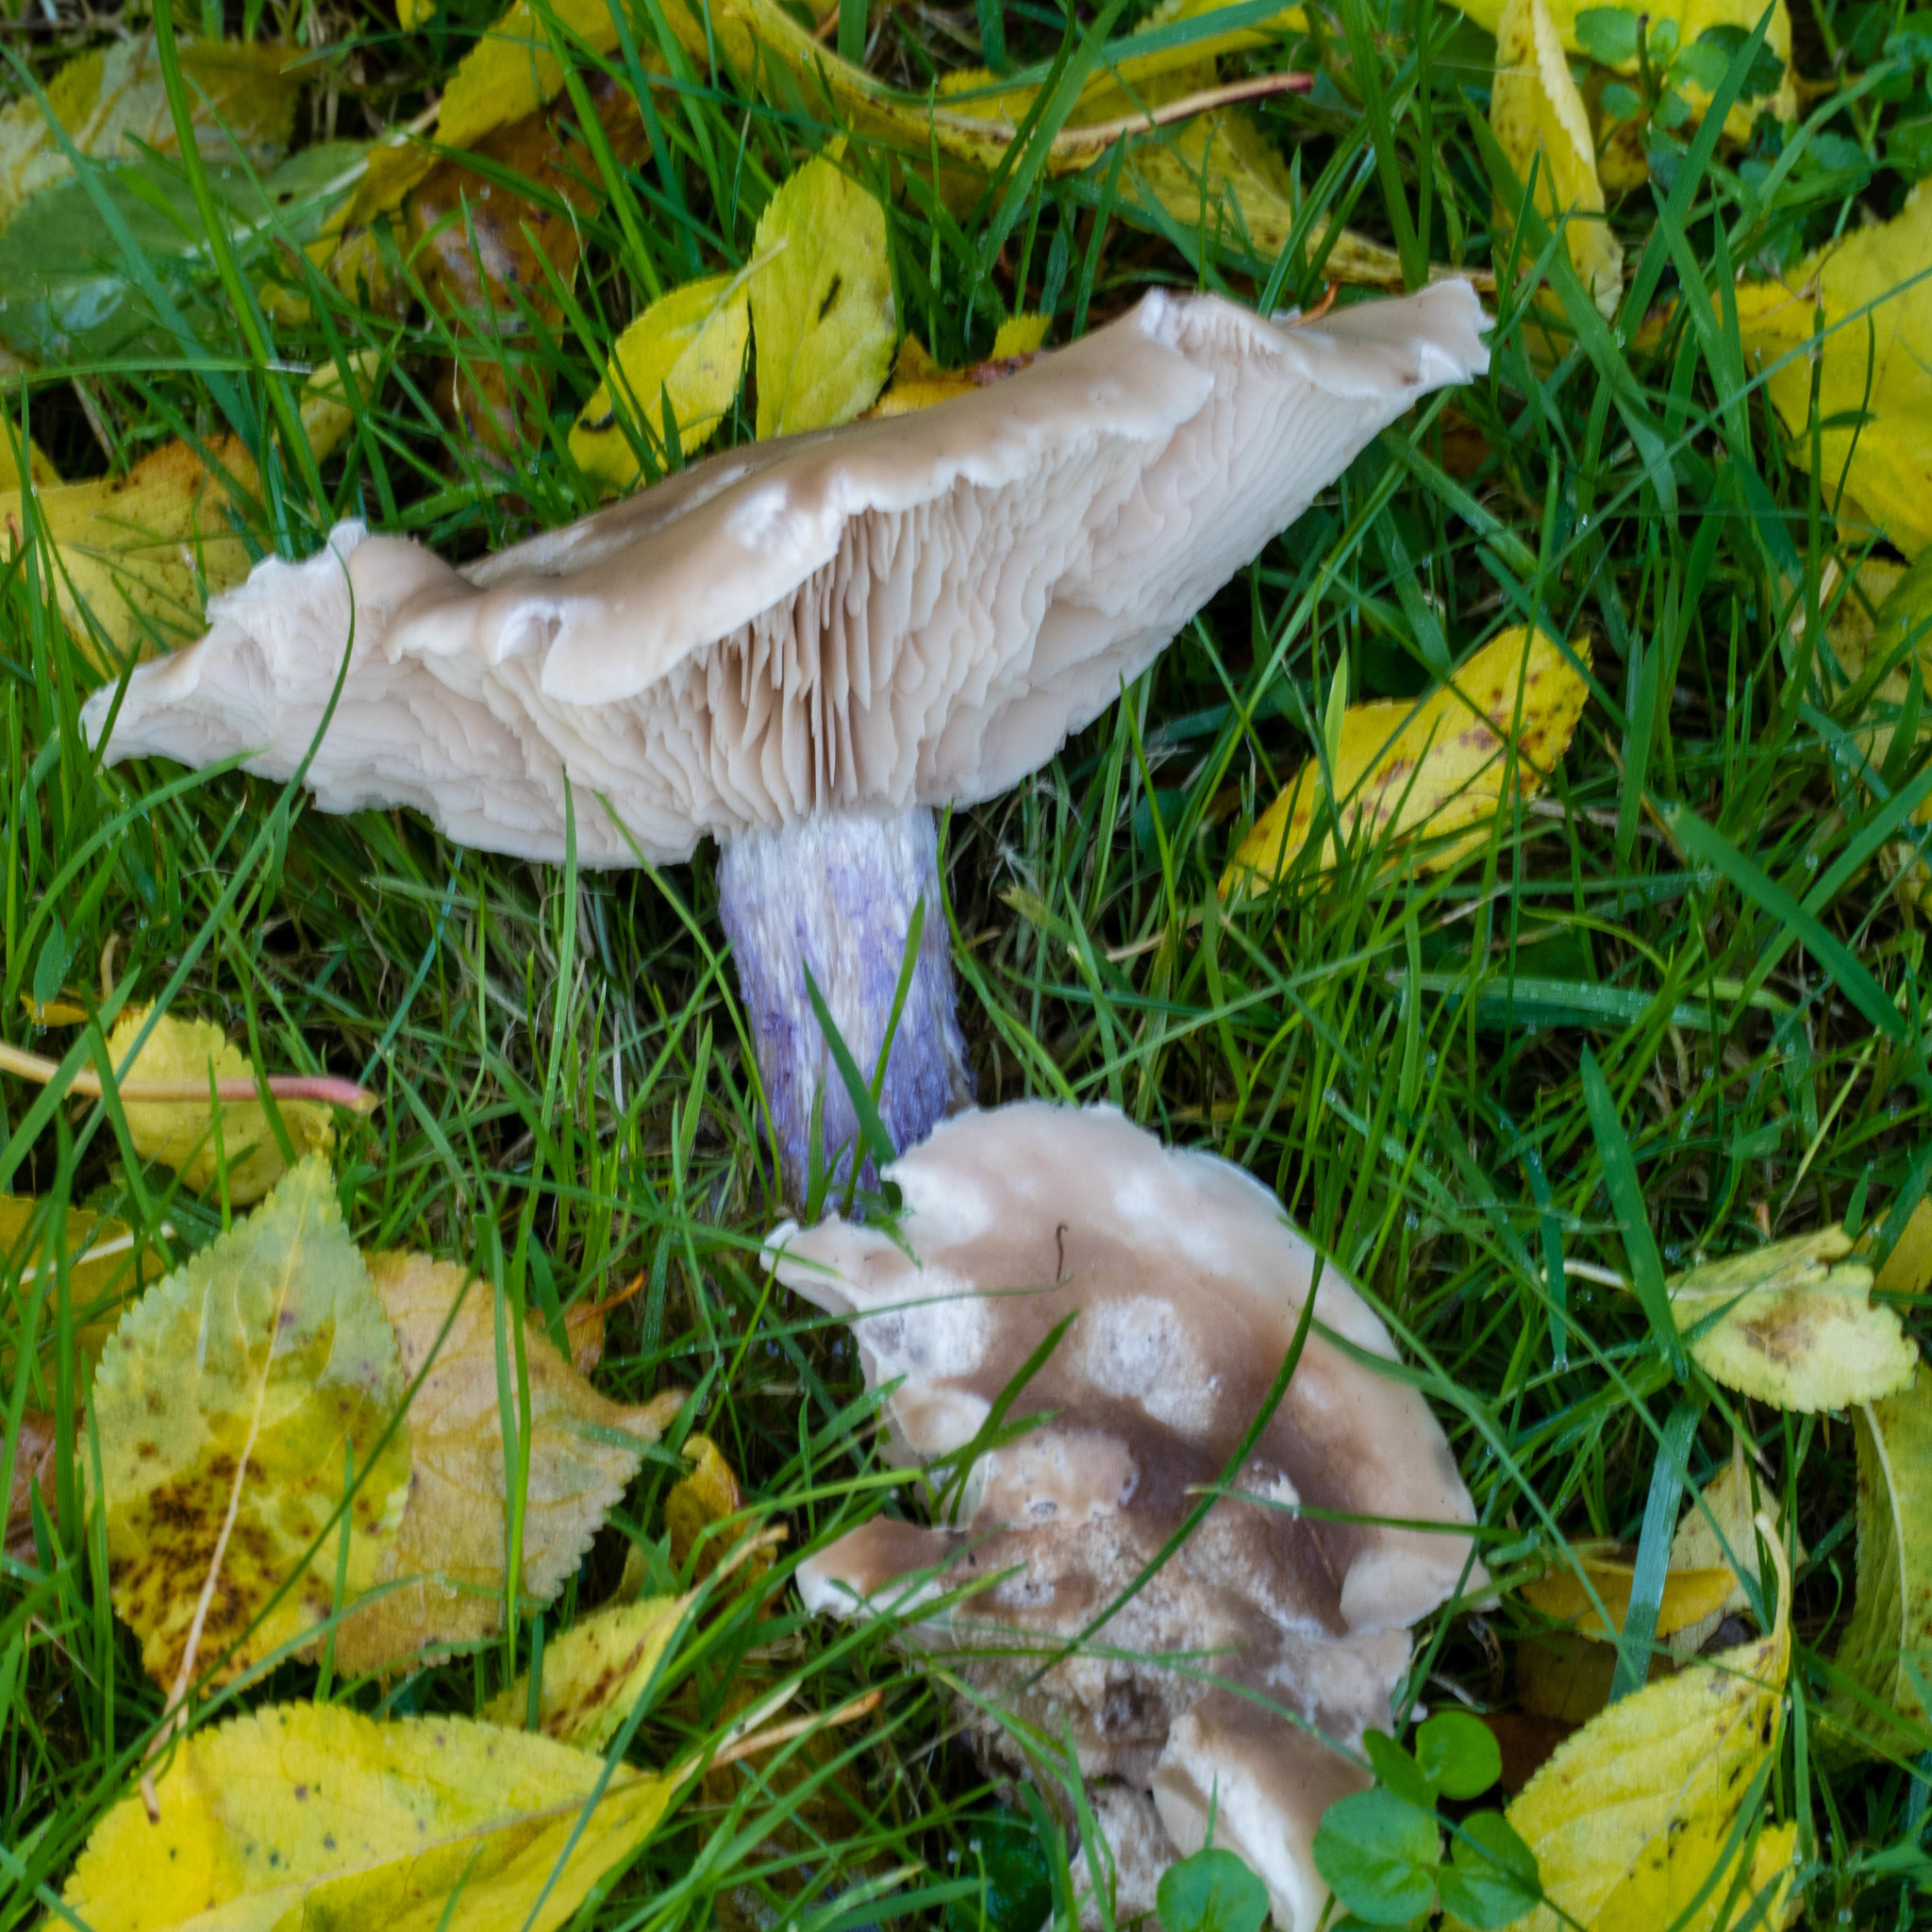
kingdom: Fungi
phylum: Basidiomycota
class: Agaricomycetes
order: Agaricales
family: Omphalotaceae
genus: Collybiopsis
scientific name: Collybiopsis peronata
